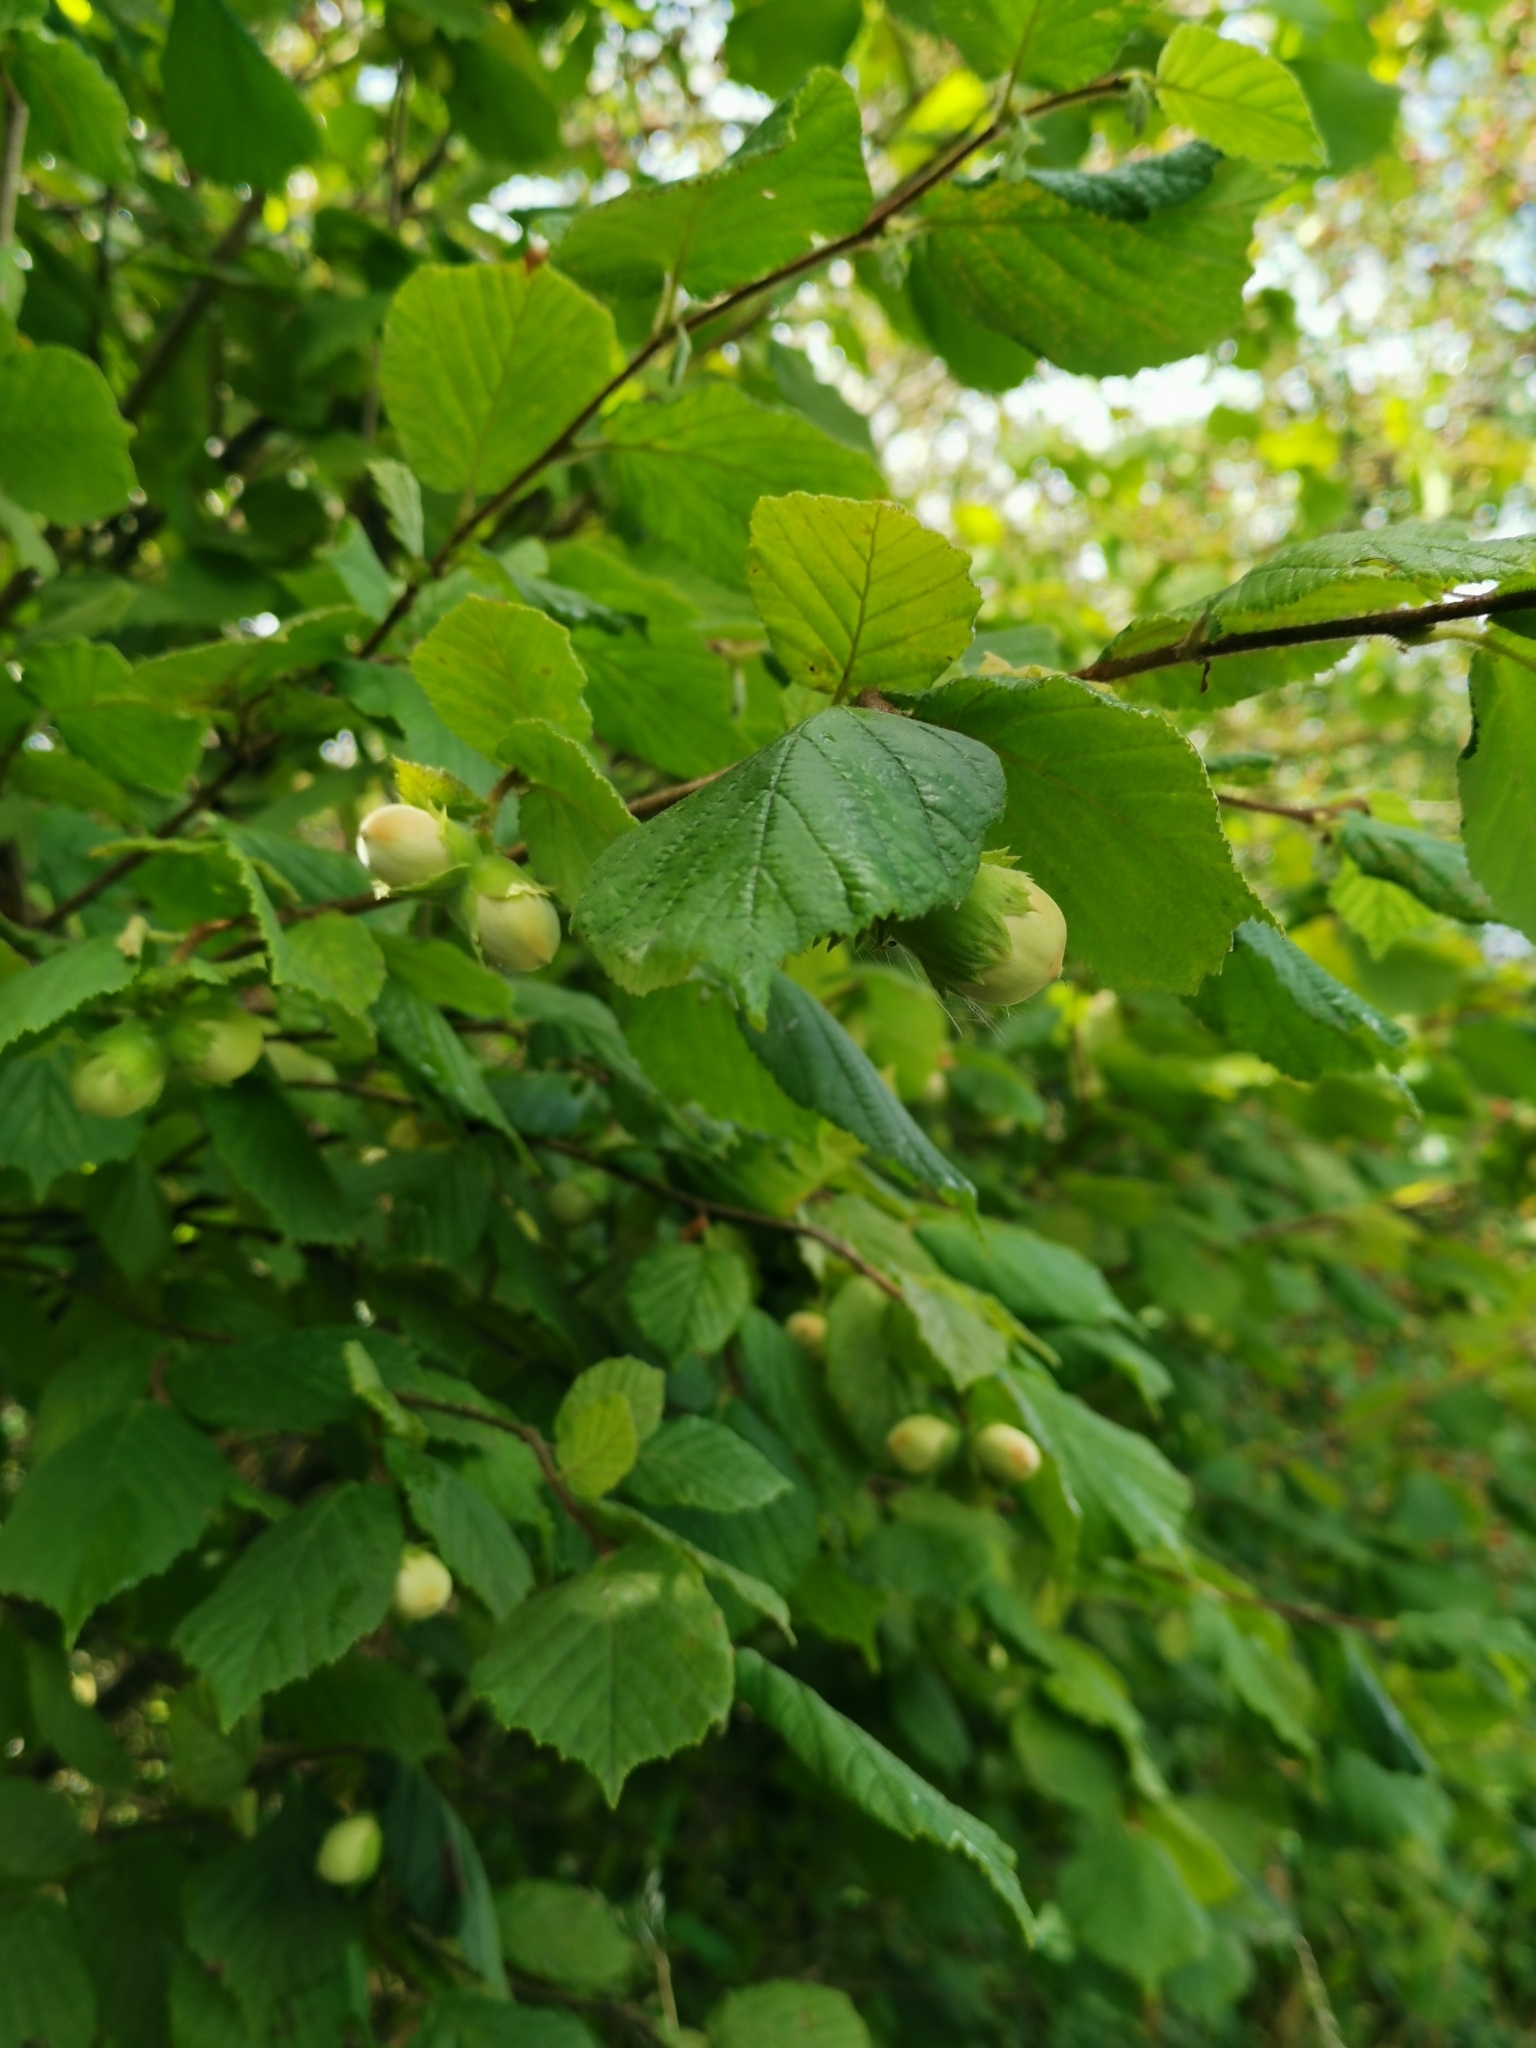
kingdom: Plantae
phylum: Tracheophyta
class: Magnoliopsida
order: Fagales
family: Betulaceae
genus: Corylus
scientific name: Corylus avellana
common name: European hazel
